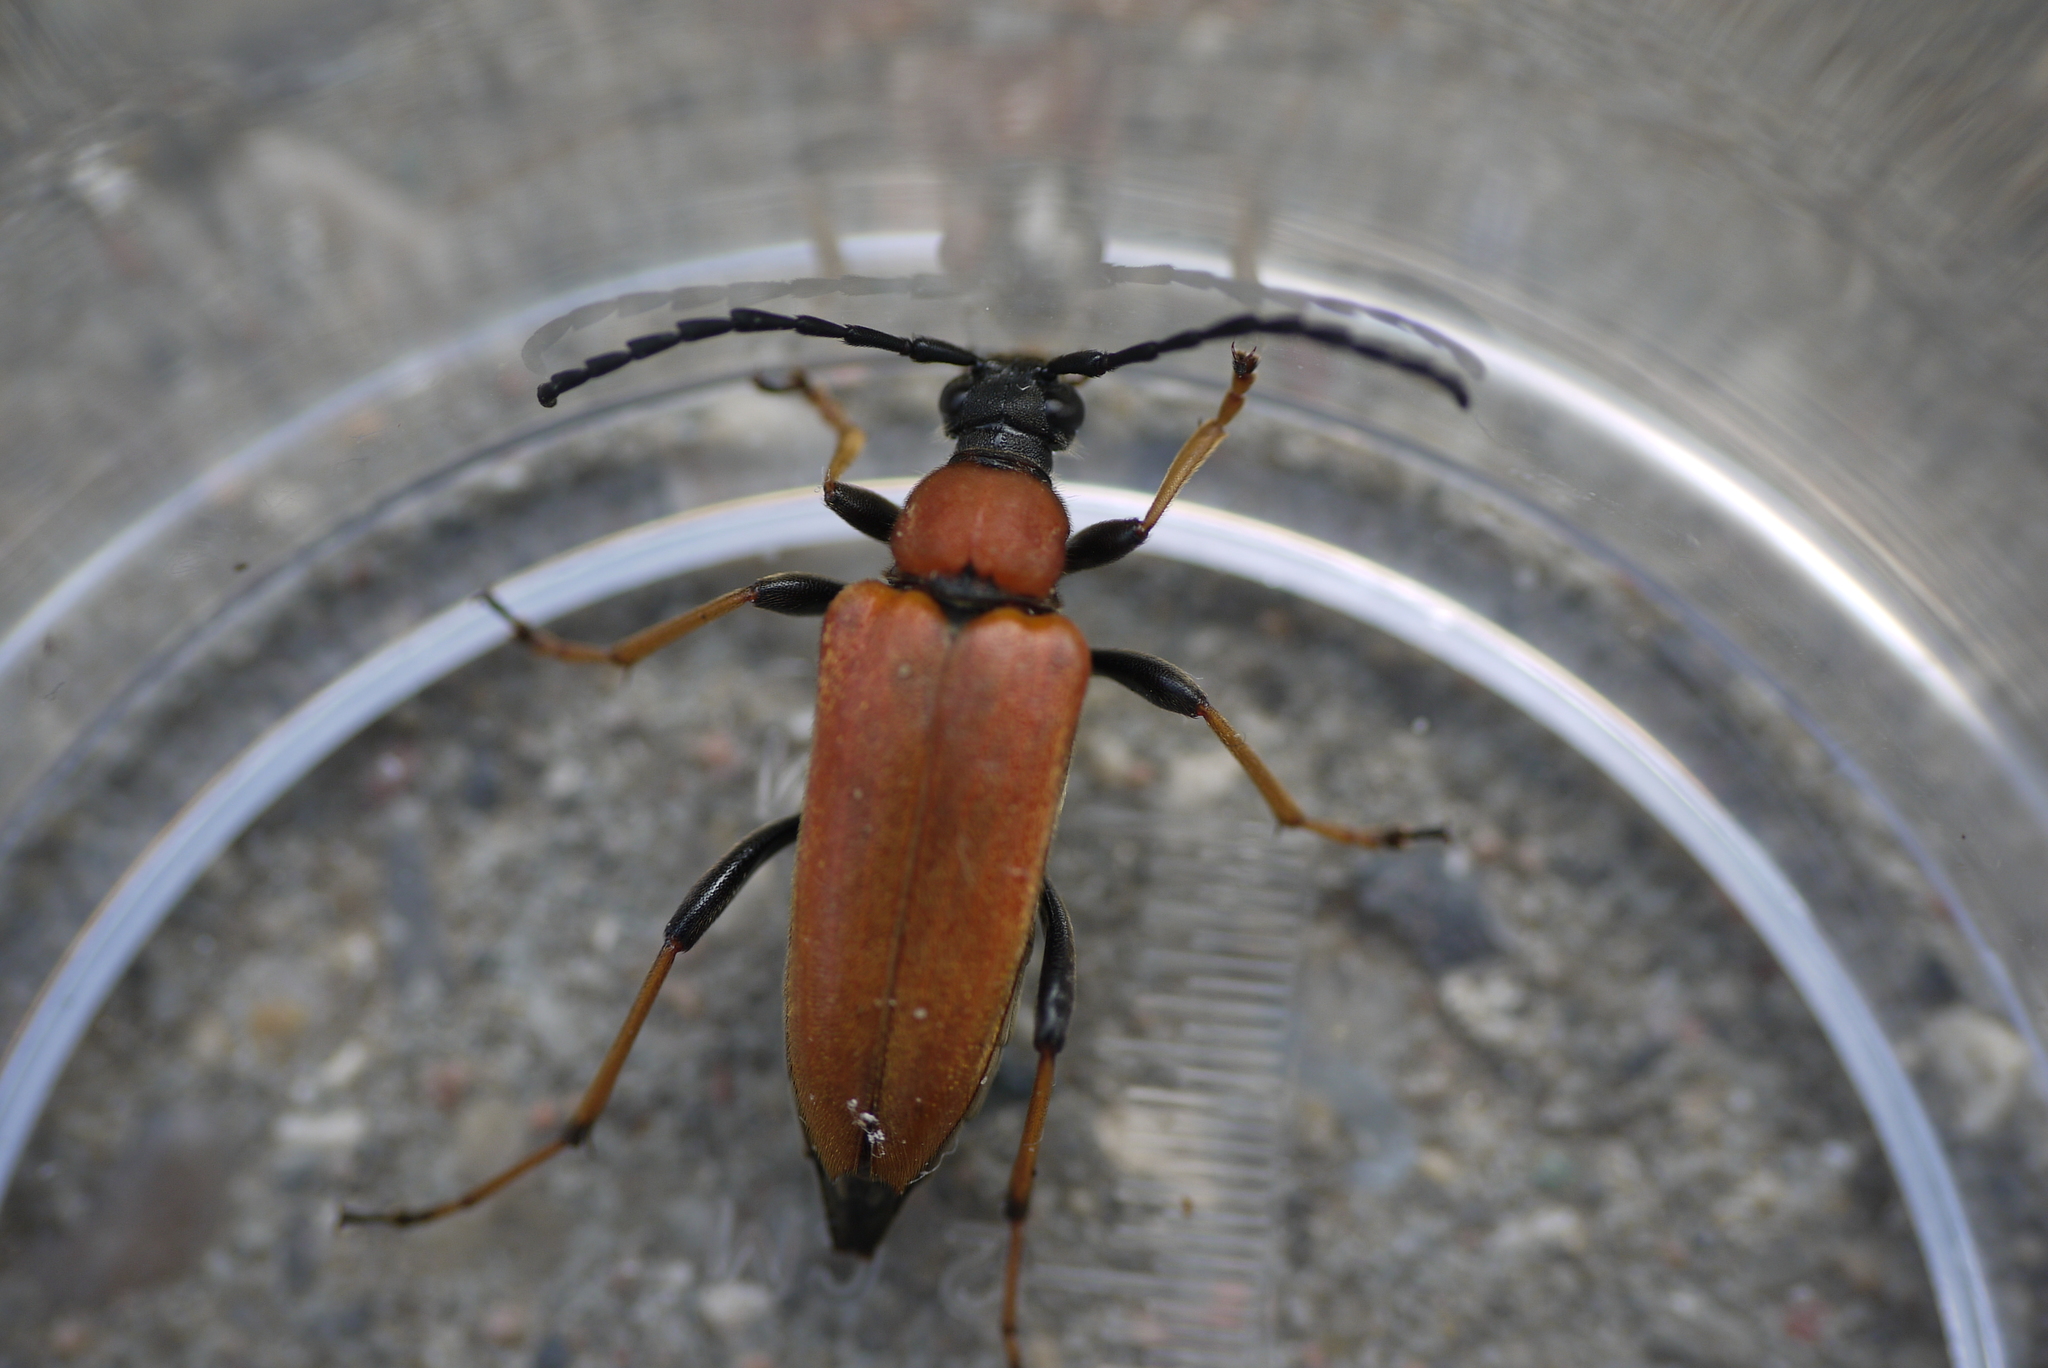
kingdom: Animalia
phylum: Arthropoda
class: Insecta
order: Coleoptera
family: Cerambycidae
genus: Stictoleptura
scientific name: Stictoleptura rubra
